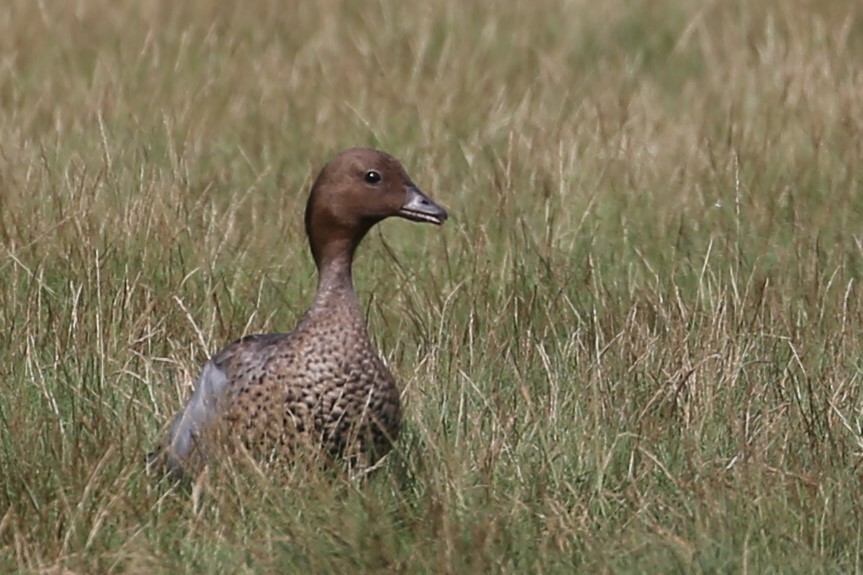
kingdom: Animalia
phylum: Chordata
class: Aves
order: Anseriformes
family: Anatidae
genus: Chenonetta
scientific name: Chenonetta jubata
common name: Maned duck
